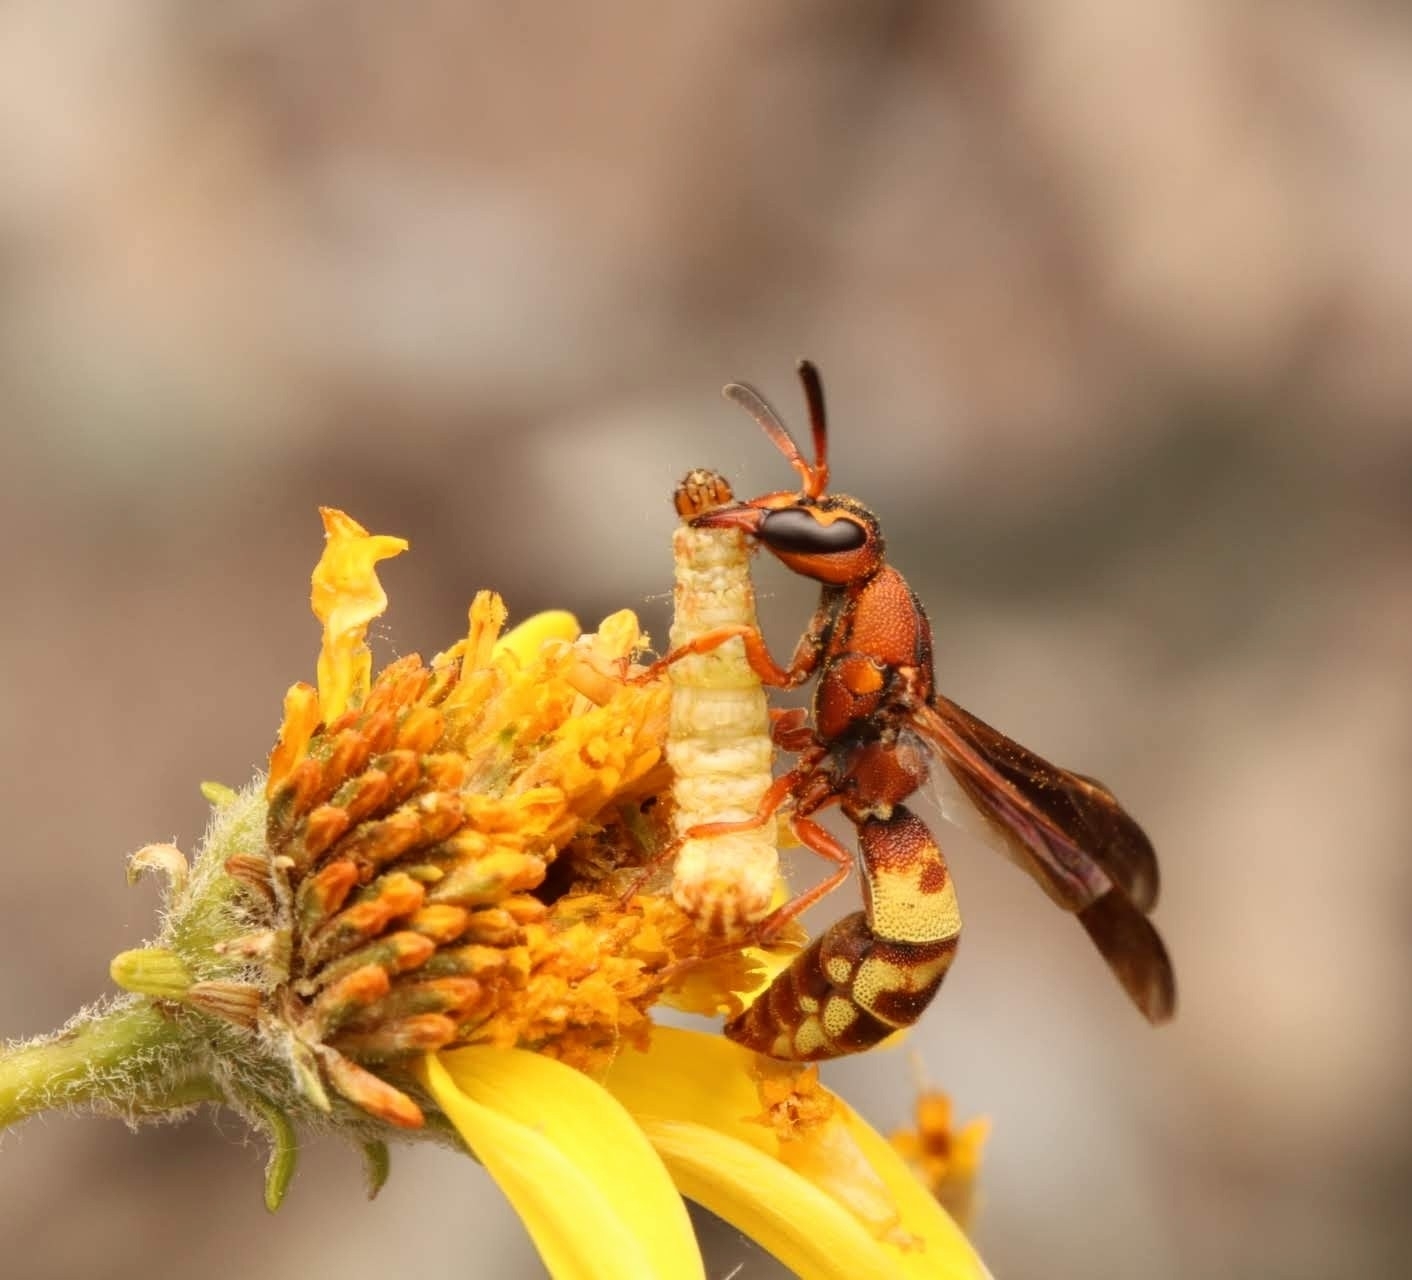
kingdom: Animalia
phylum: Arthropoda
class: Insecta
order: Hymenoptera
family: Eumenidae
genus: Dolichodynerus
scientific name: Dolichodynerus tanynotus
